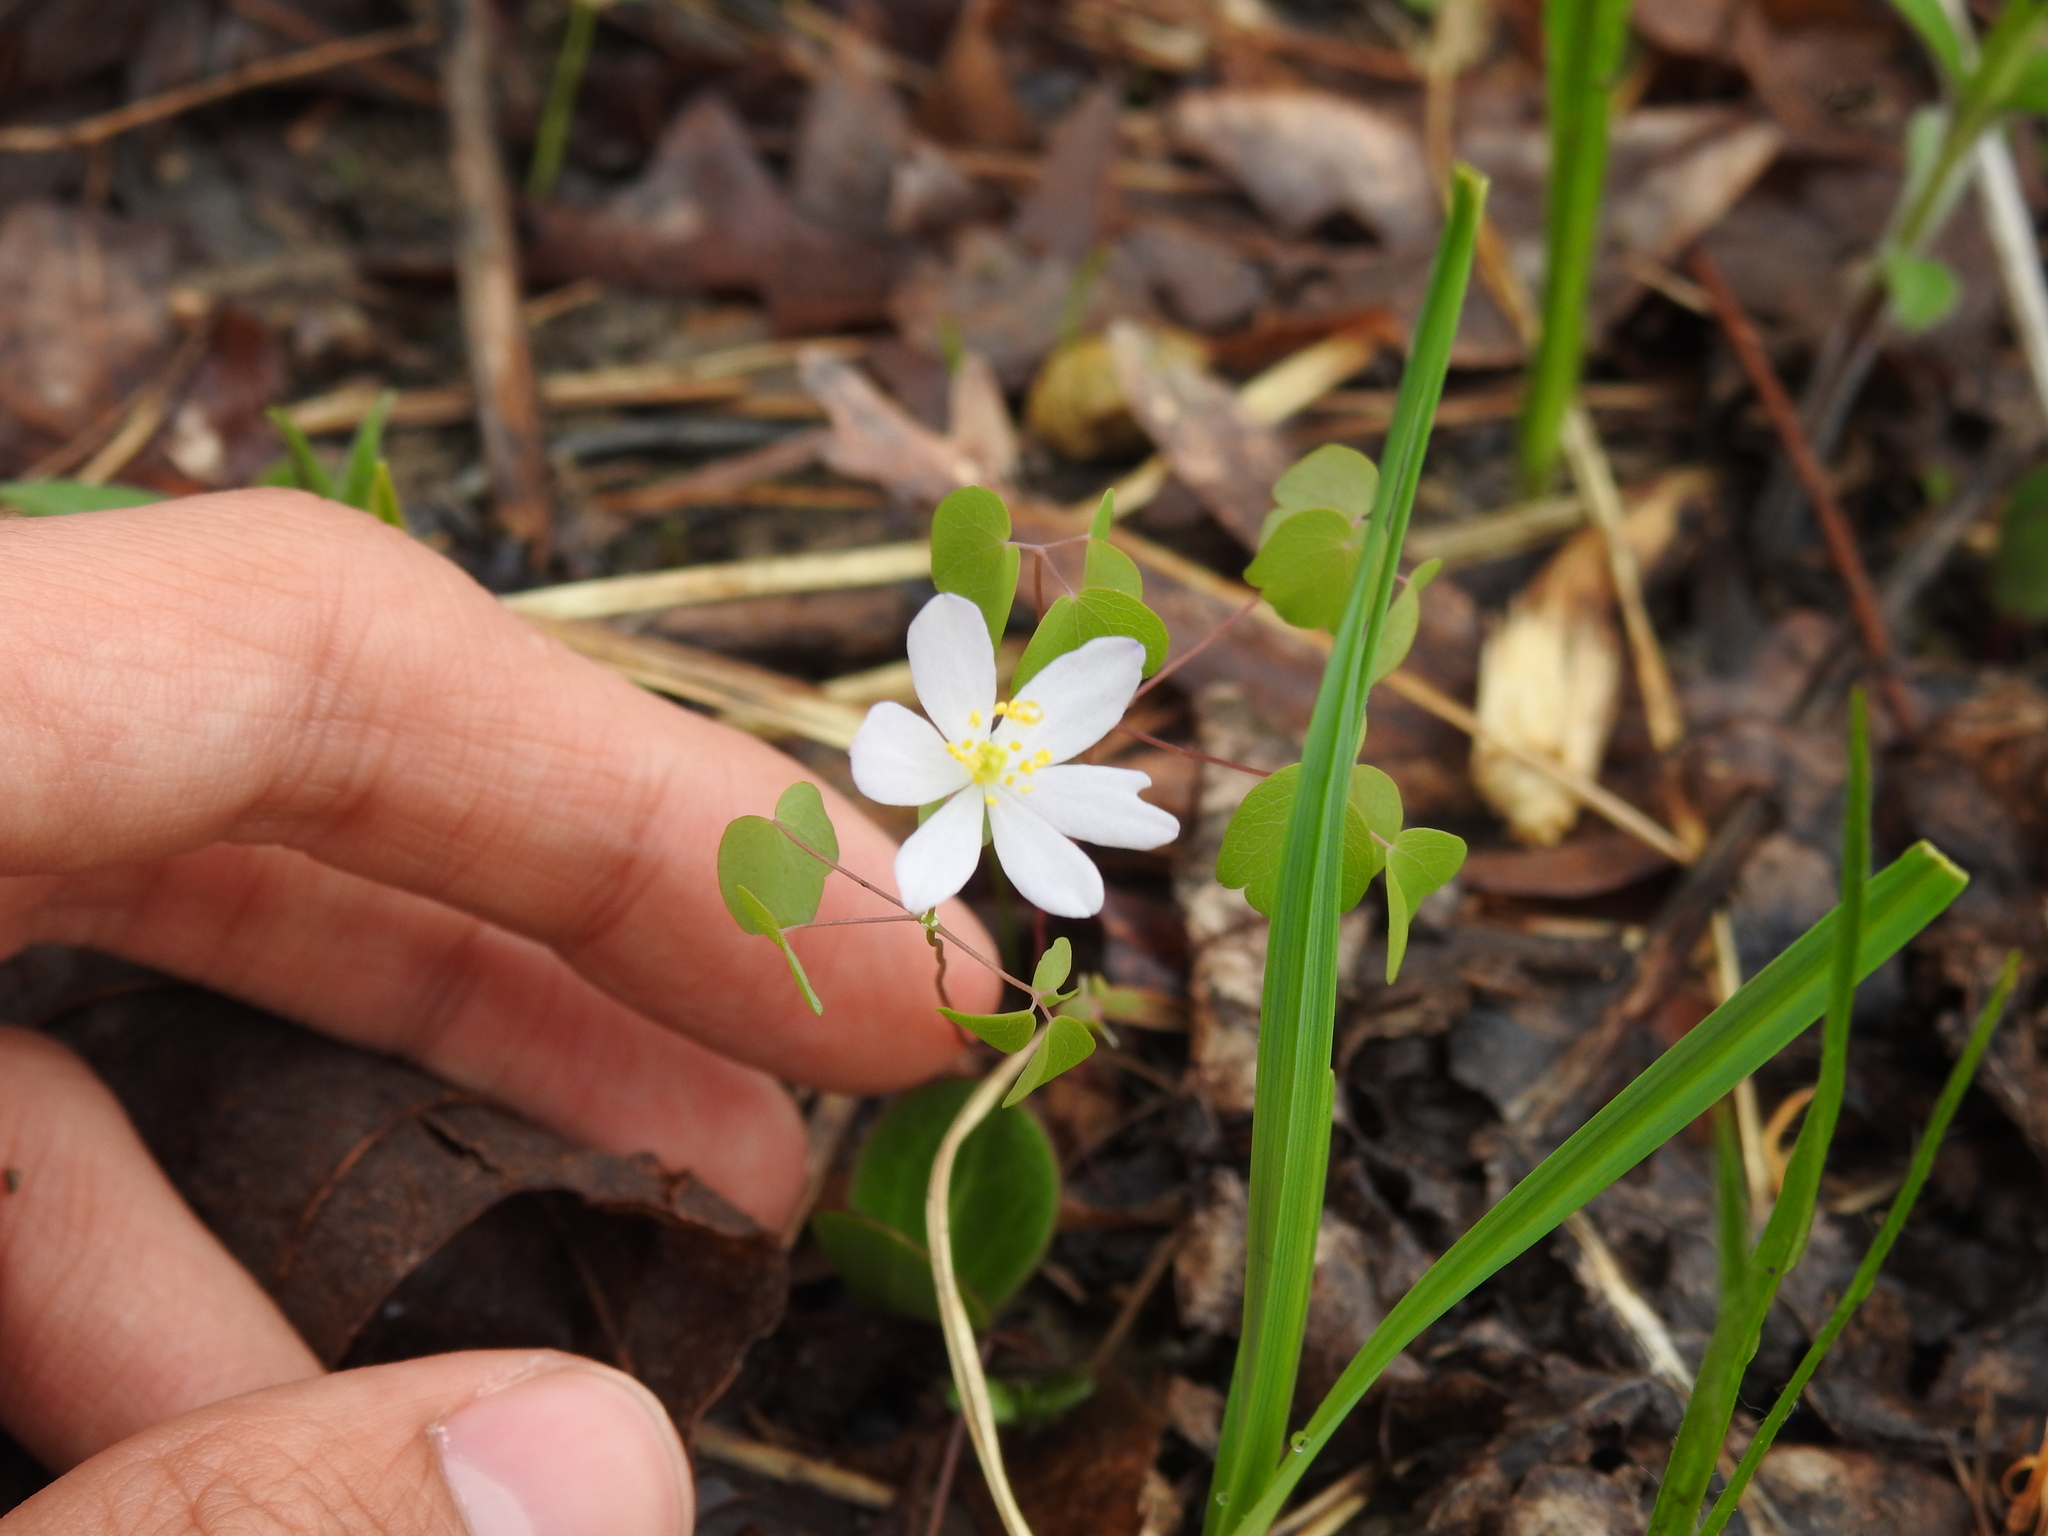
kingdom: Plantae
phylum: Tracheophyta
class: Magnoliopsida
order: Ranunculales
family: Ranunculaceae
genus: Thalictrum
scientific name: Thalictrum thalictroides
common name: Rue-anemone
